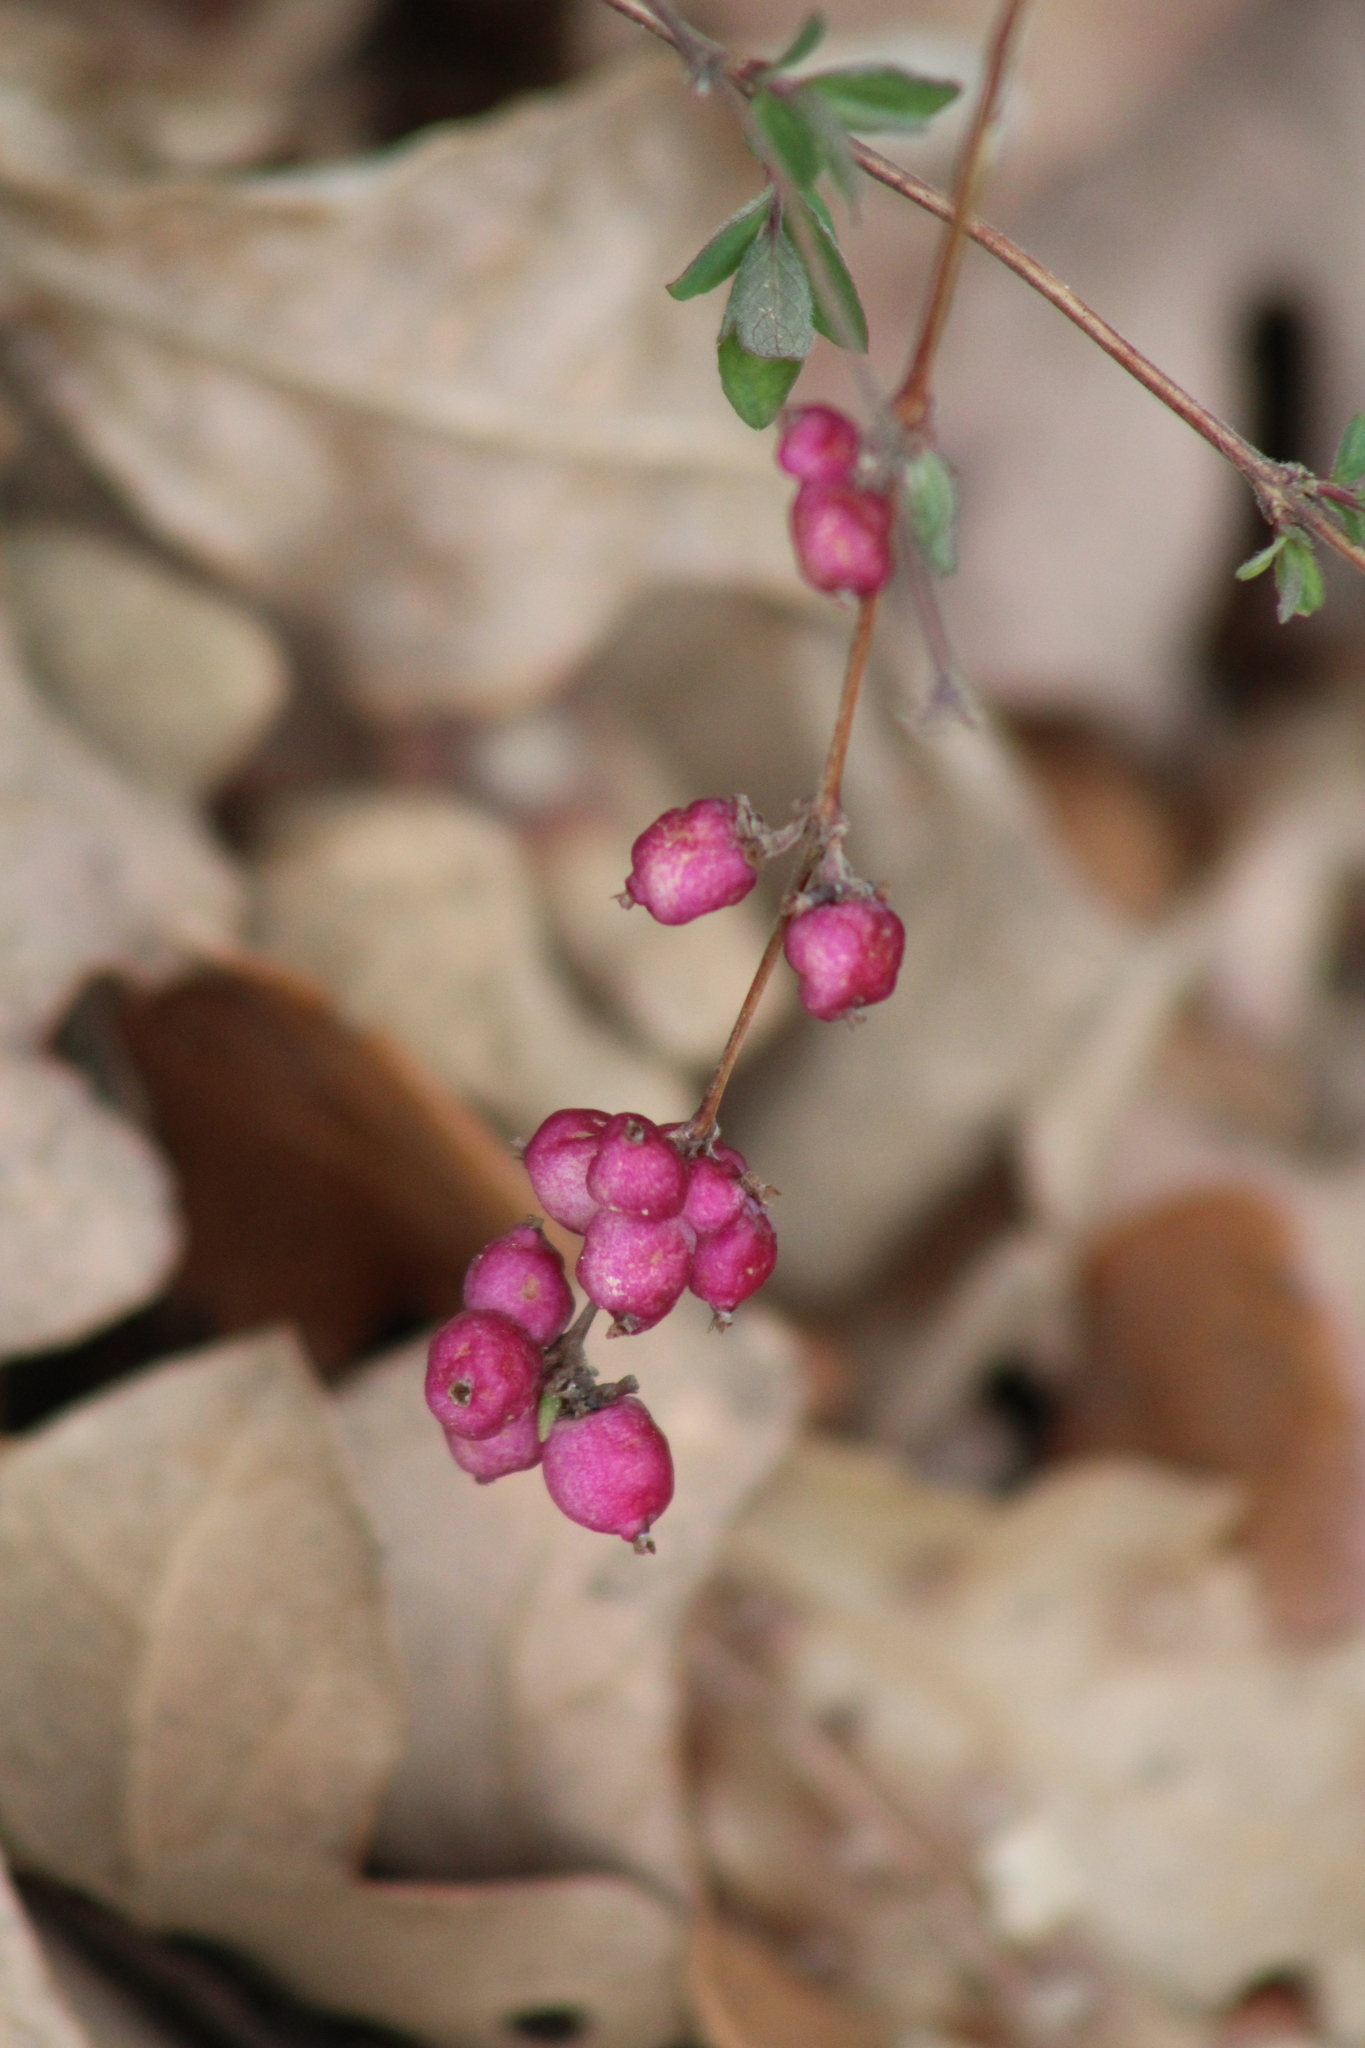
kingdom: Plantae
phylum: Tracheophyta
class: Magnoliopsida
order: Dipsacales
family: Caprifoliaceae
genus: Symphoricarpos
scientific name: Symphoricarpos orbiculatus
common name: Coralberry
